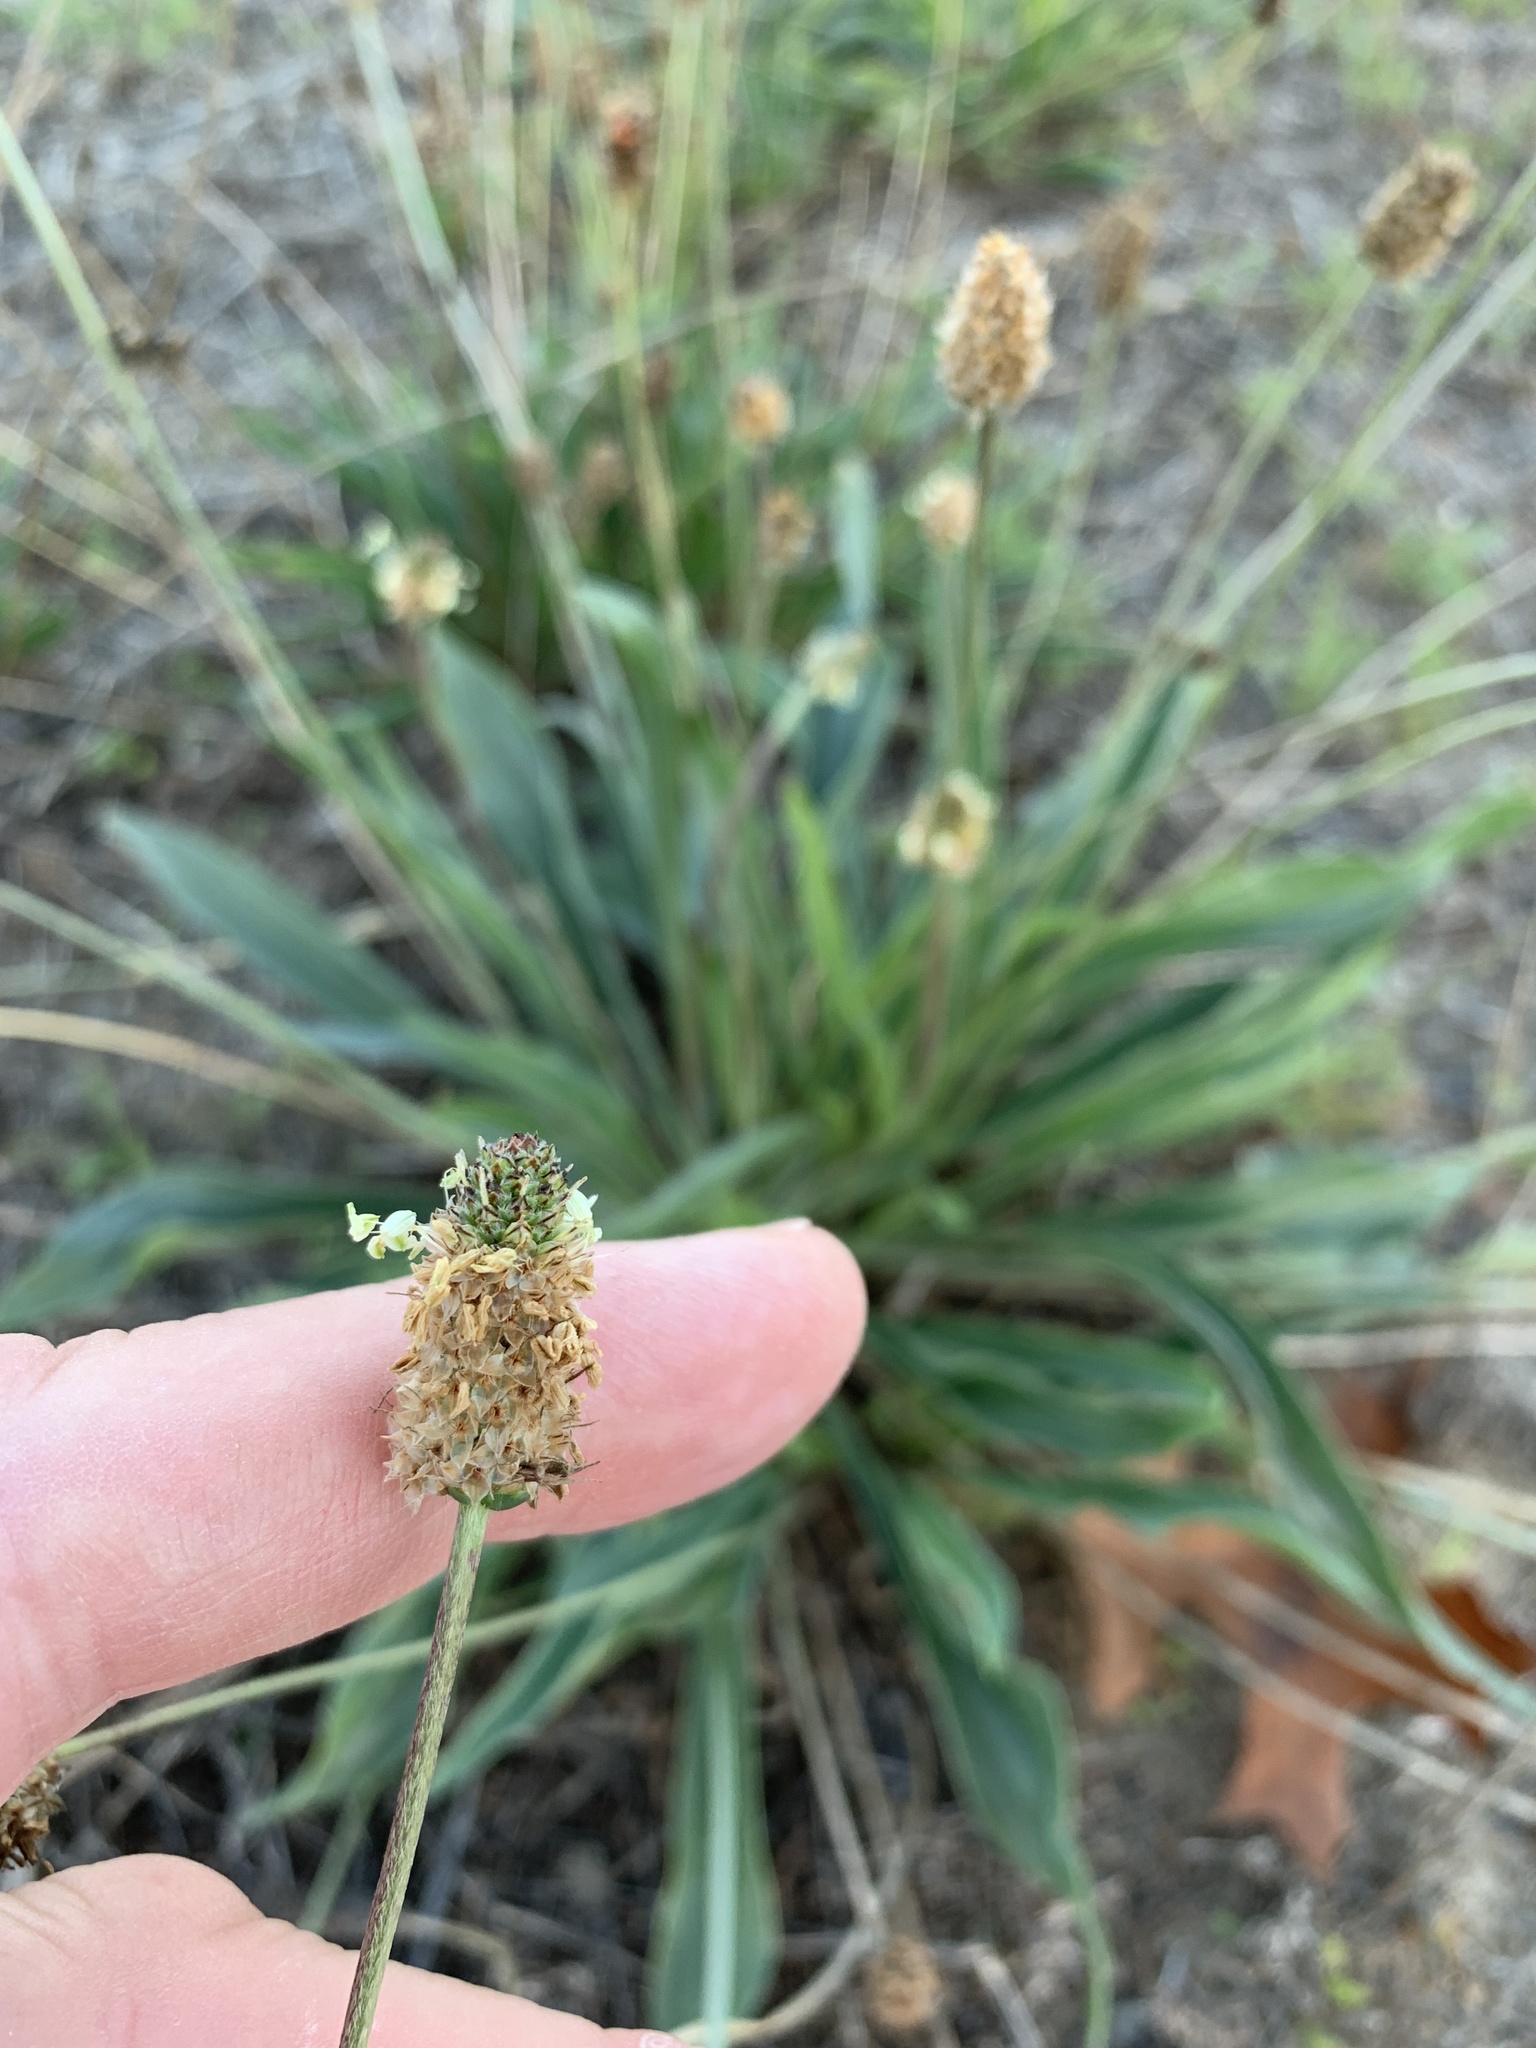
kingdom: Plantae
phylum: Tracheophyta
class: Magnoliopsida
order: Lamiales
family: Plantaginaceae
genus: Plantago
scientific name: Plantago lanceolata
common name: Ribwort plantain
